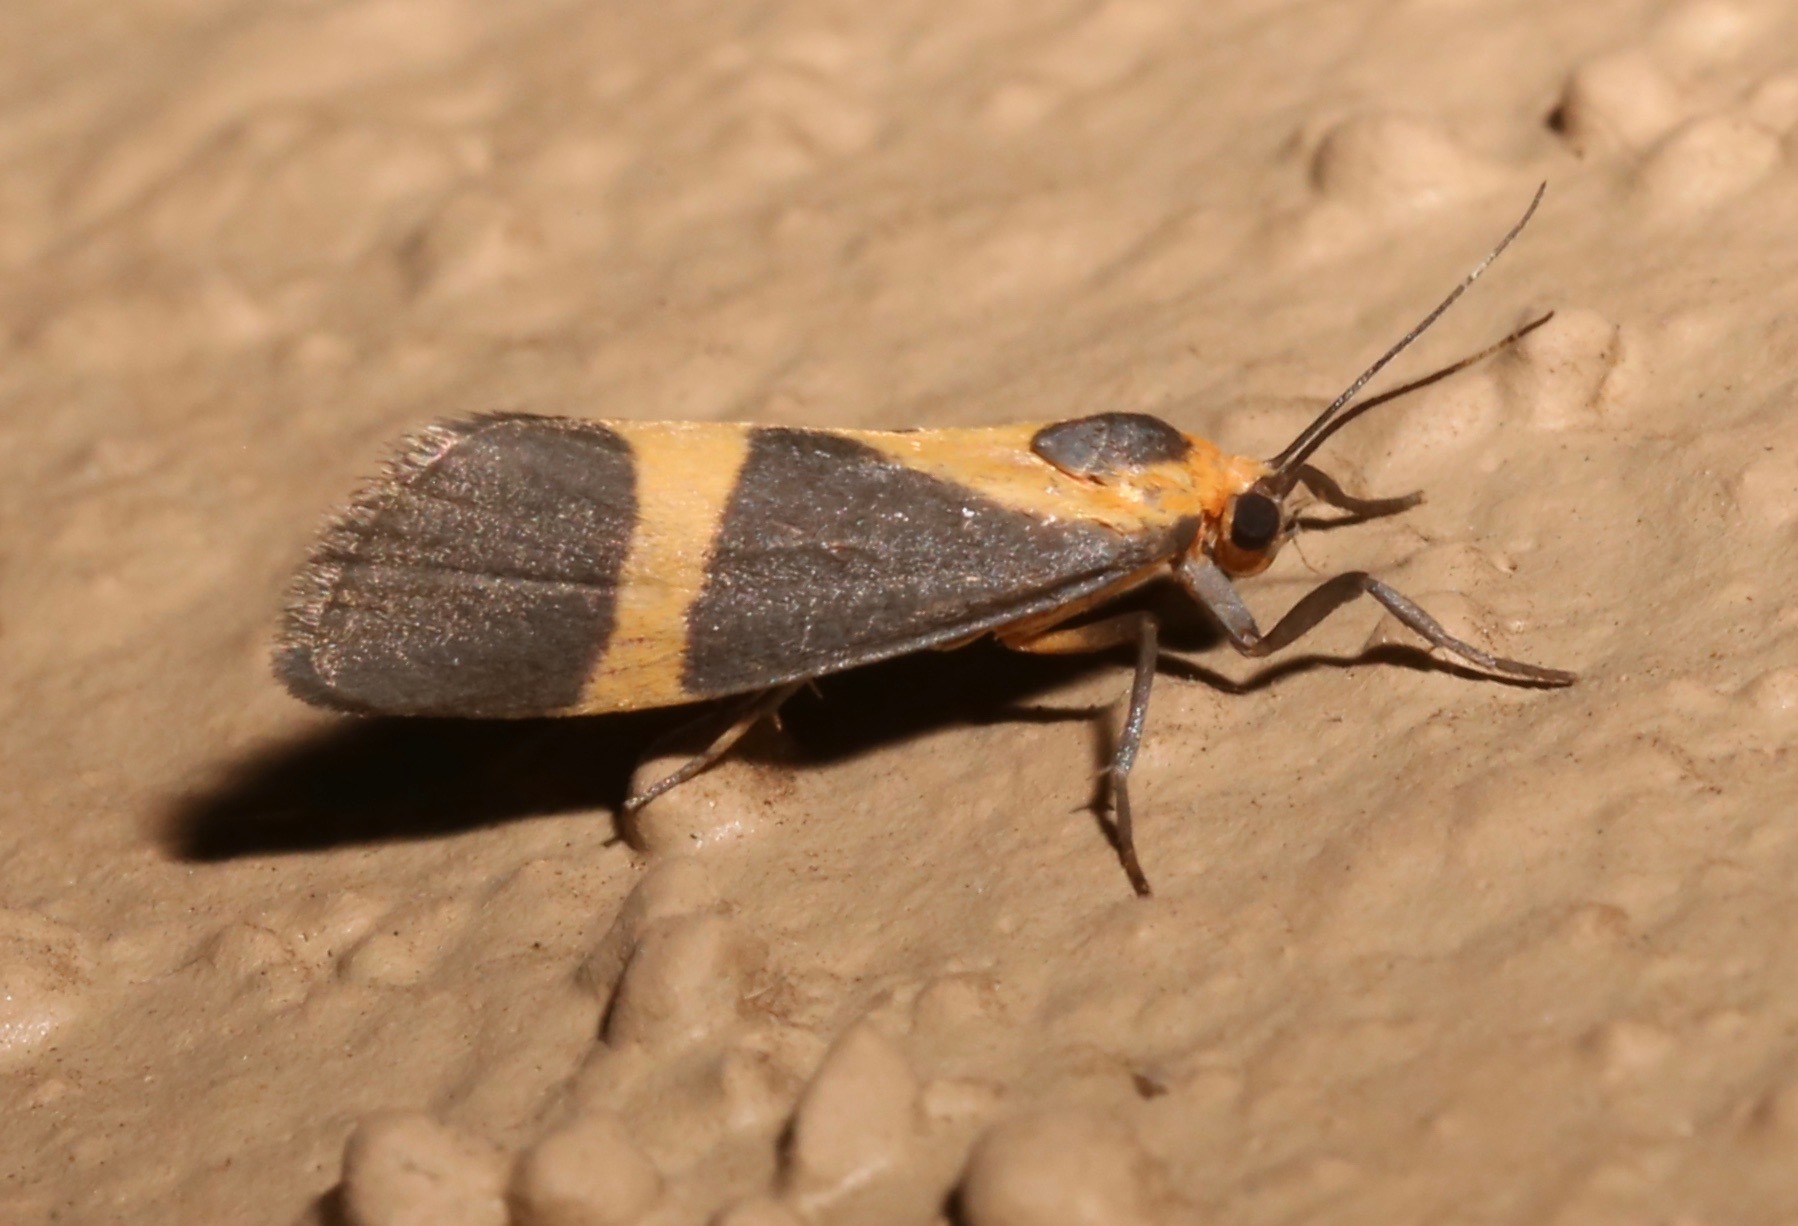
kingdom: Animalia
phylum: Arthropoda
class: Insecta
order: Lepidoptera
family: Erebidae
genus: Cisthene
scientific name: Cisthene tenuifascia
